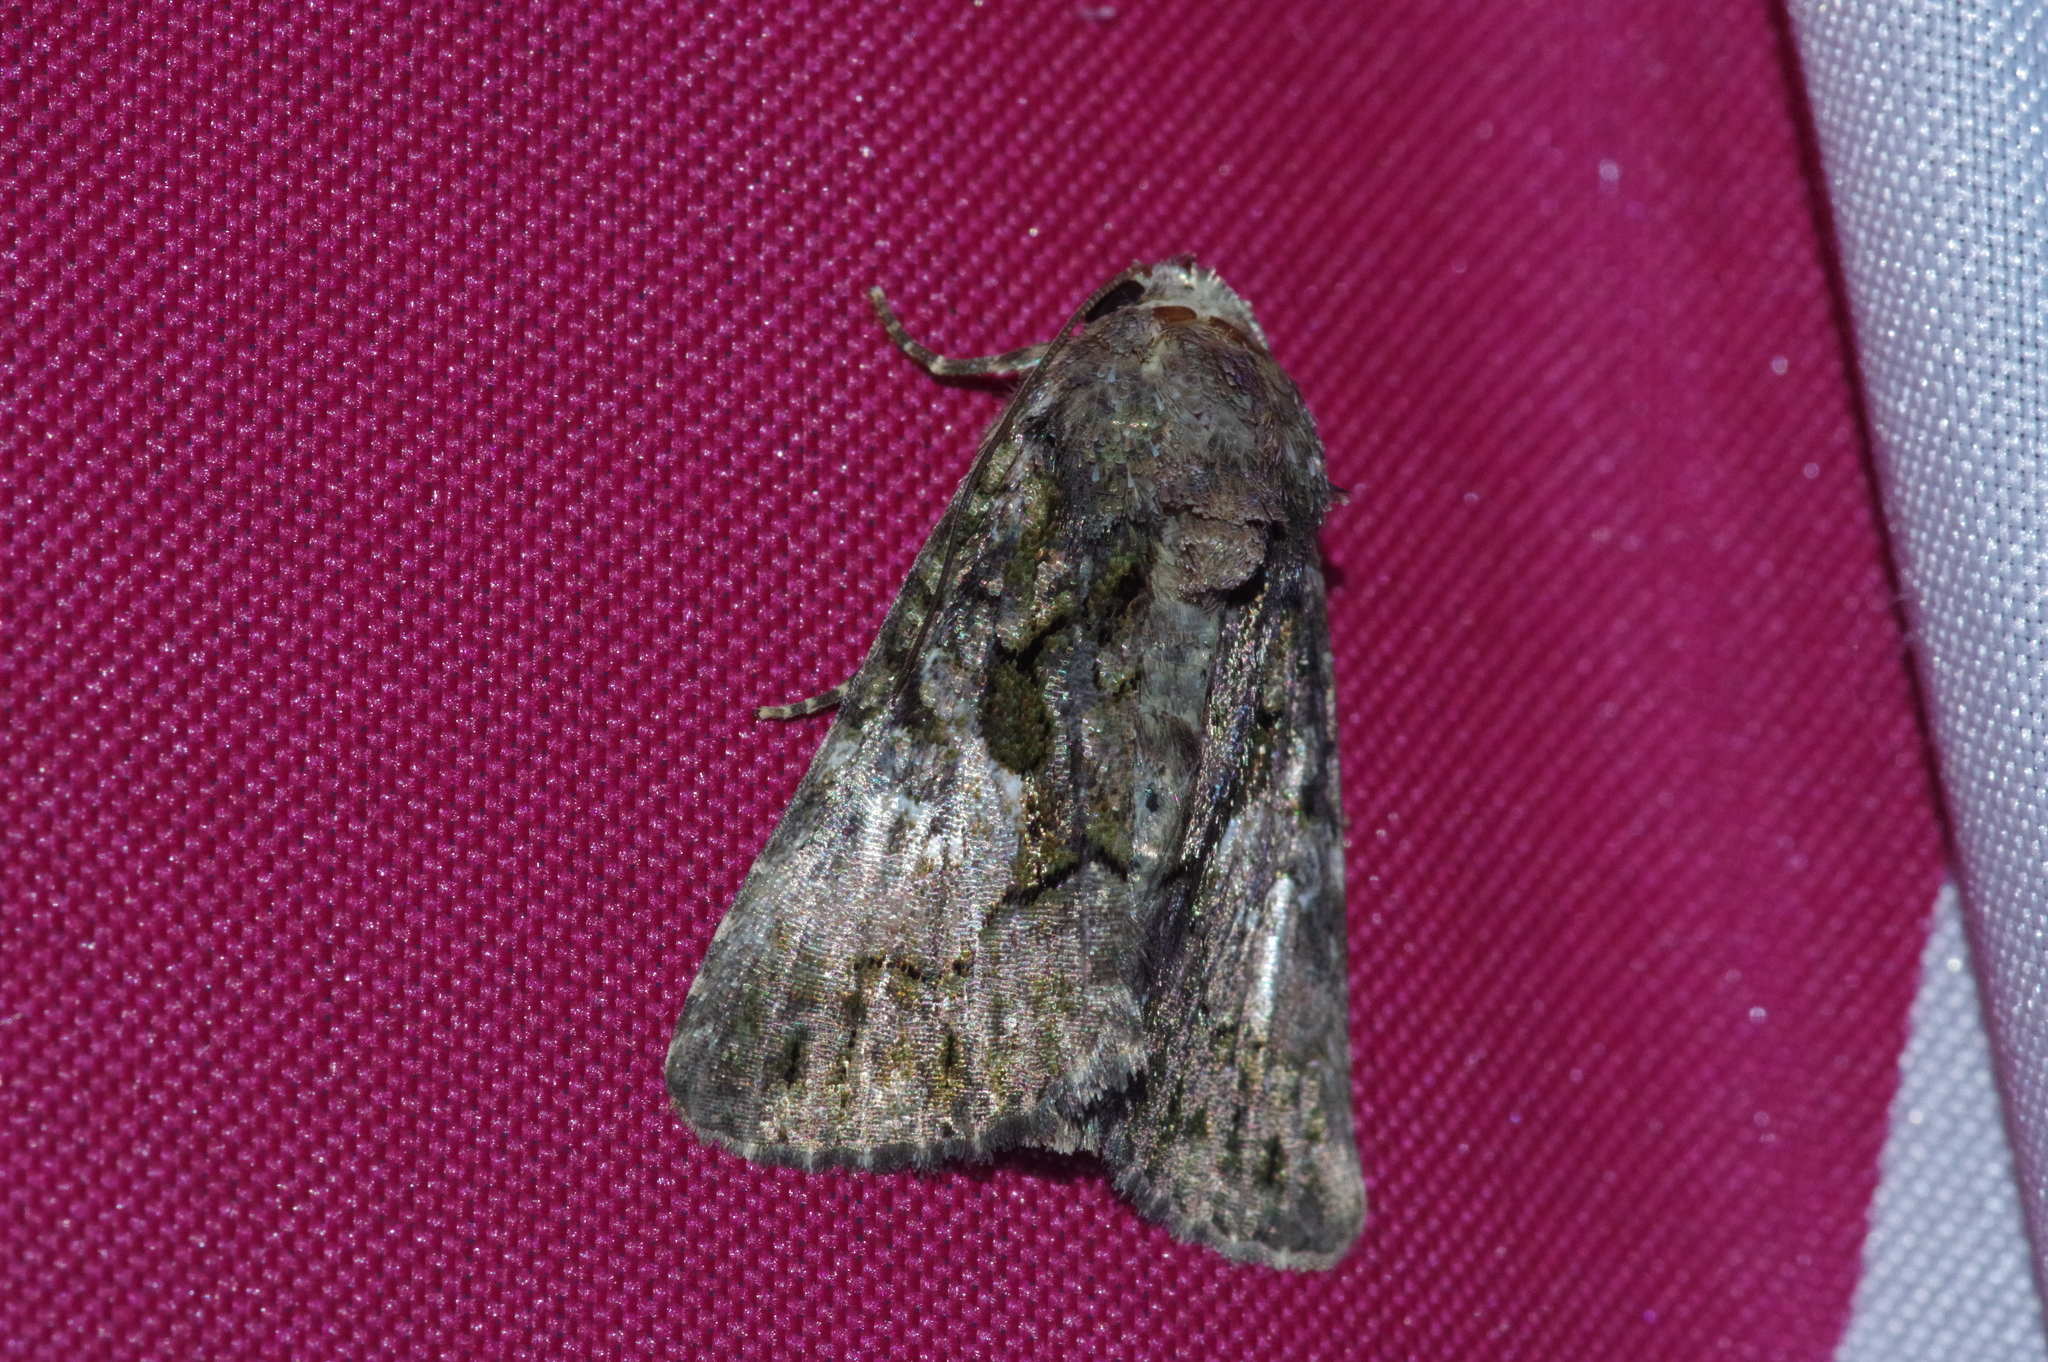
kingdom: Animalia
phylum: Arthropoda
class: Insecta
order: Lepidoptera
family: Noctuidae
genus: Aedia
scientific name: Aedia leucomelas
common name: Sorcerer
